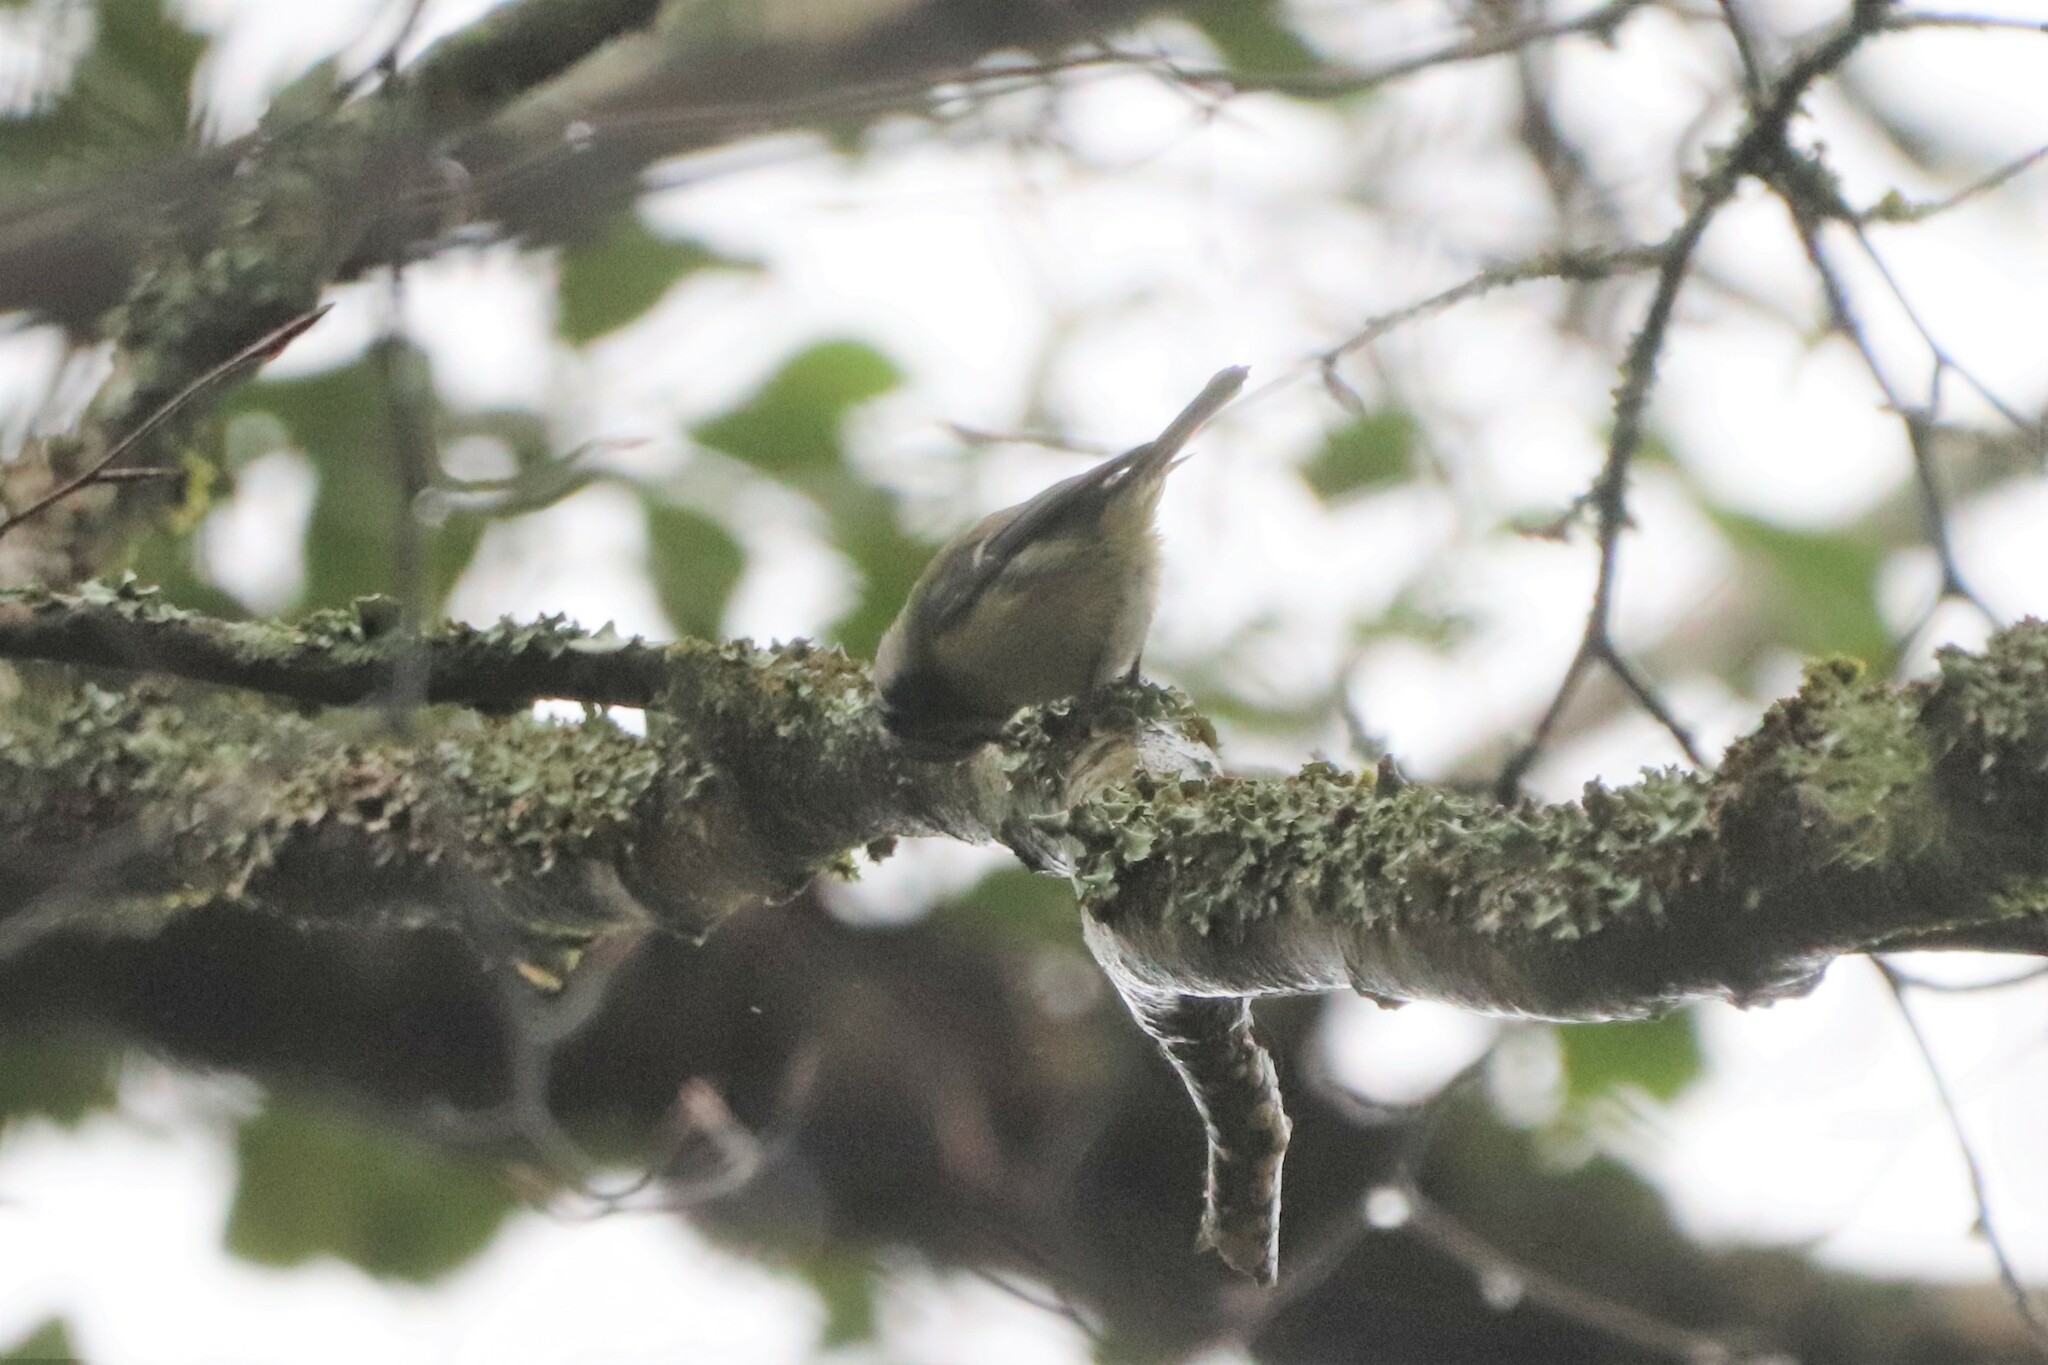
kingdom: Animalia
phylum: Chordata
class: Aves
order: Passeriformes
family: Paridae
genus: Cyanistes
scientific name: Cyanistes caeruleus
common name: Eurasian blue tit
